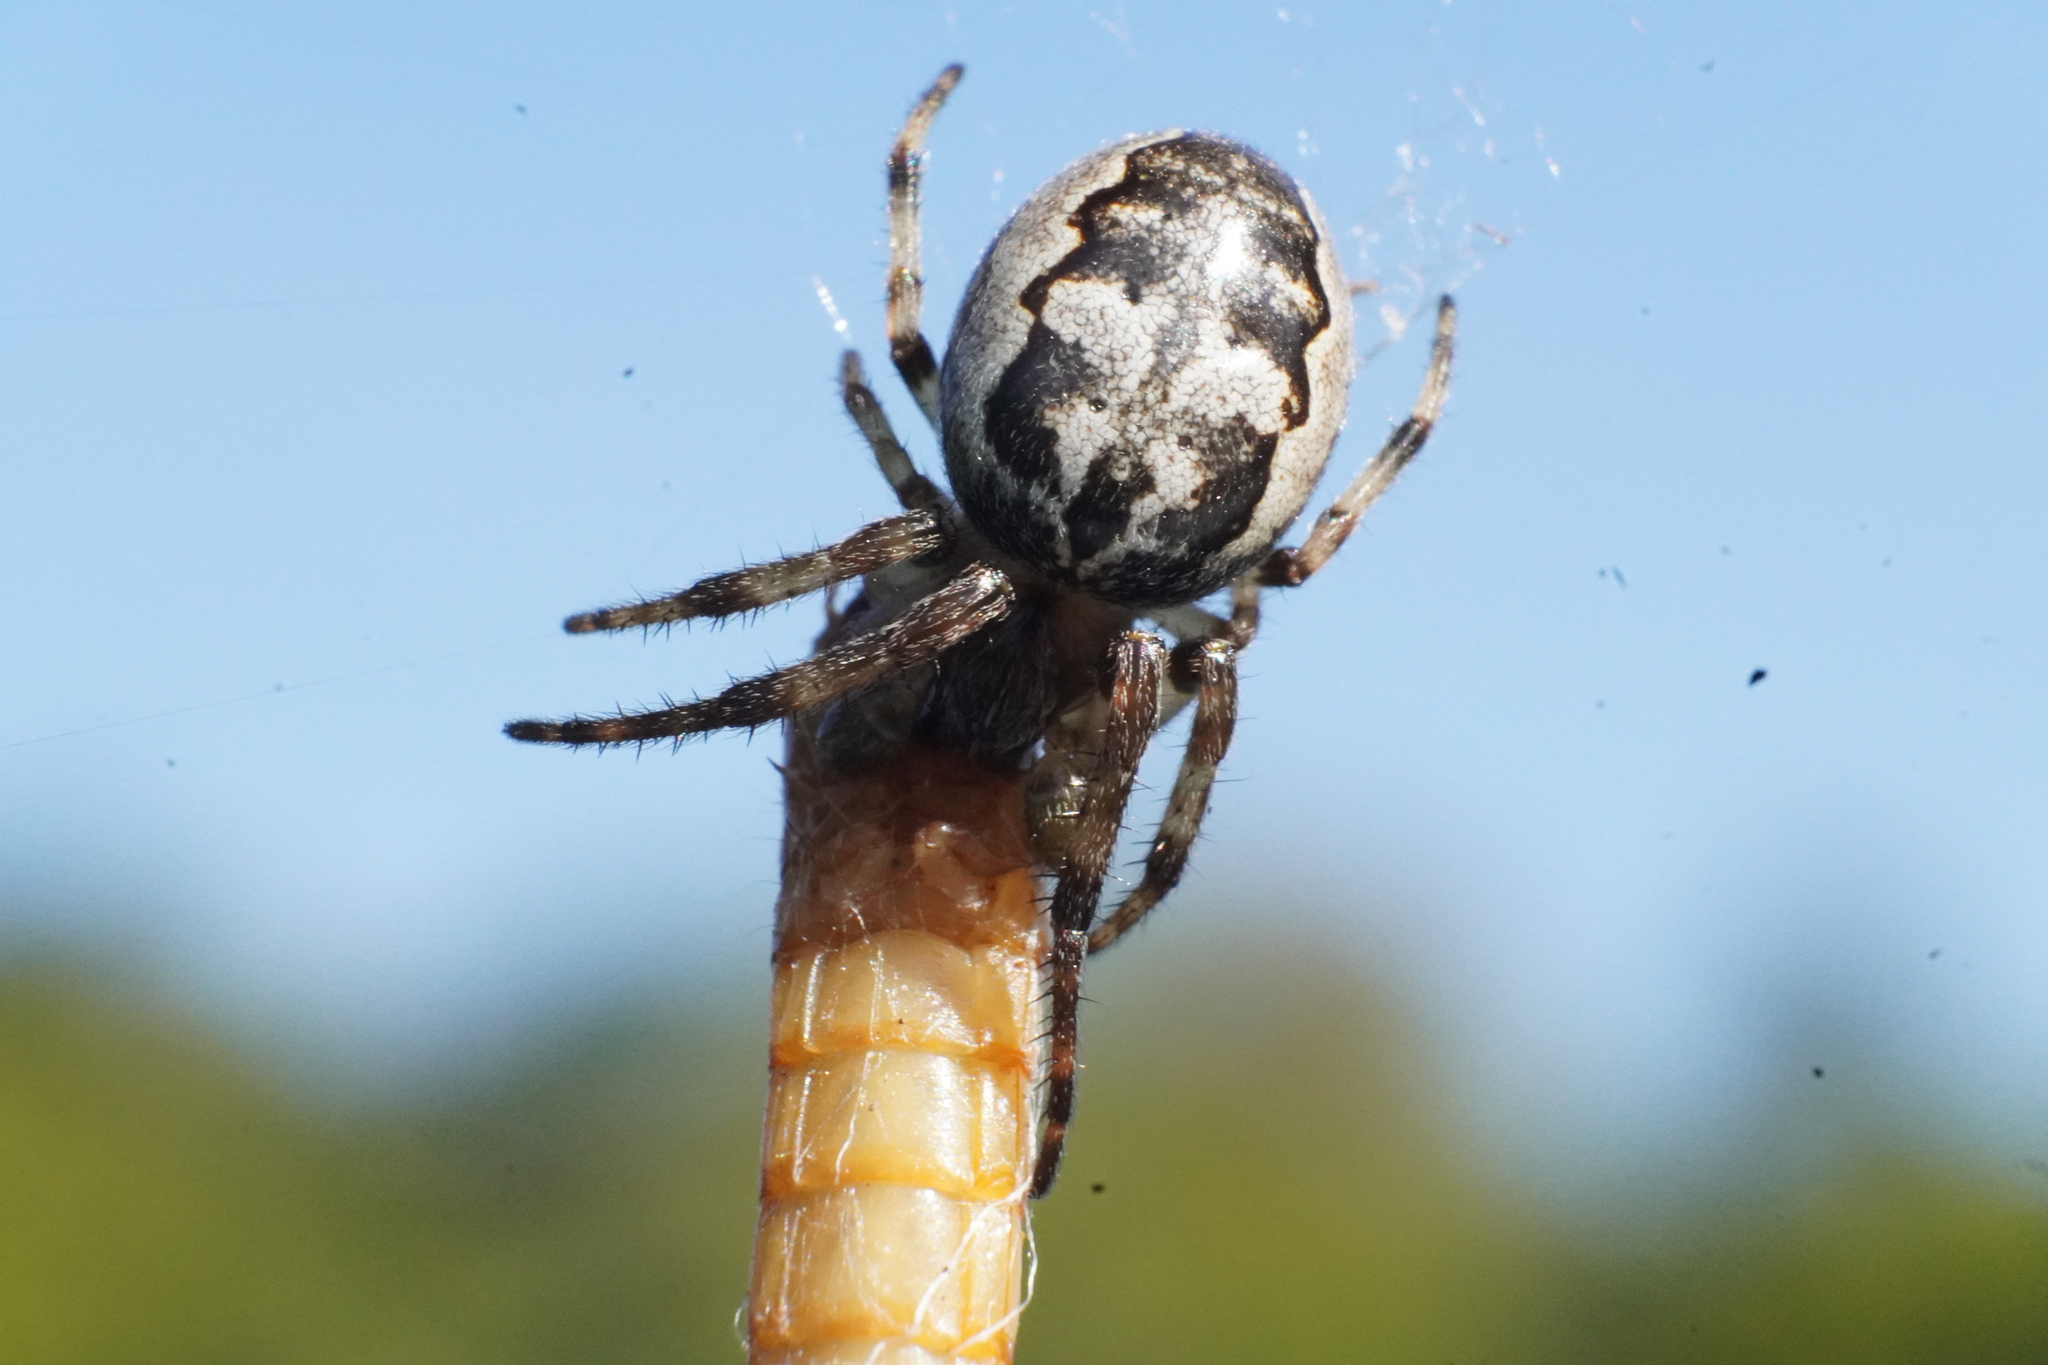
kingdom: Animalia
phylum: Arthropoda
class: Arachnida
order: Araneae
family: Araneidae
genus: Larinioides
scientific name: Larinioides cornutus
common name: Furrow orbweaver
